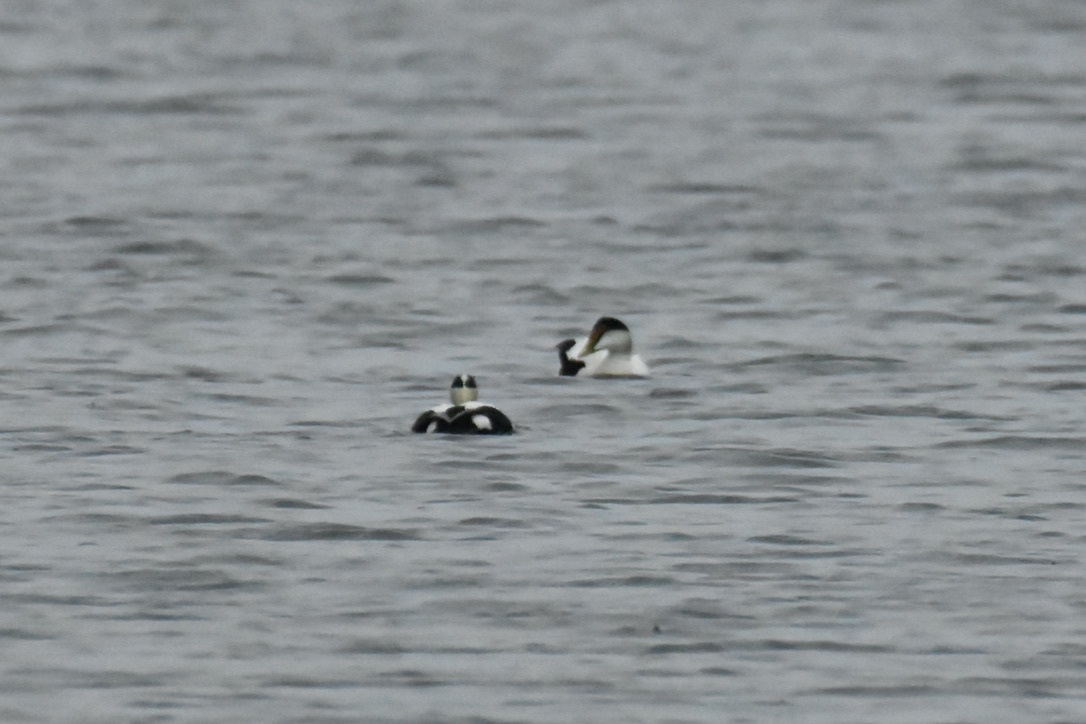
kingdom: Animalia
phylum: Chordata
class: Aves
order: Anseriformes
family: Anatidae
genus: Somateria
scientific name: Somateria mollissima
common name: Common eider
